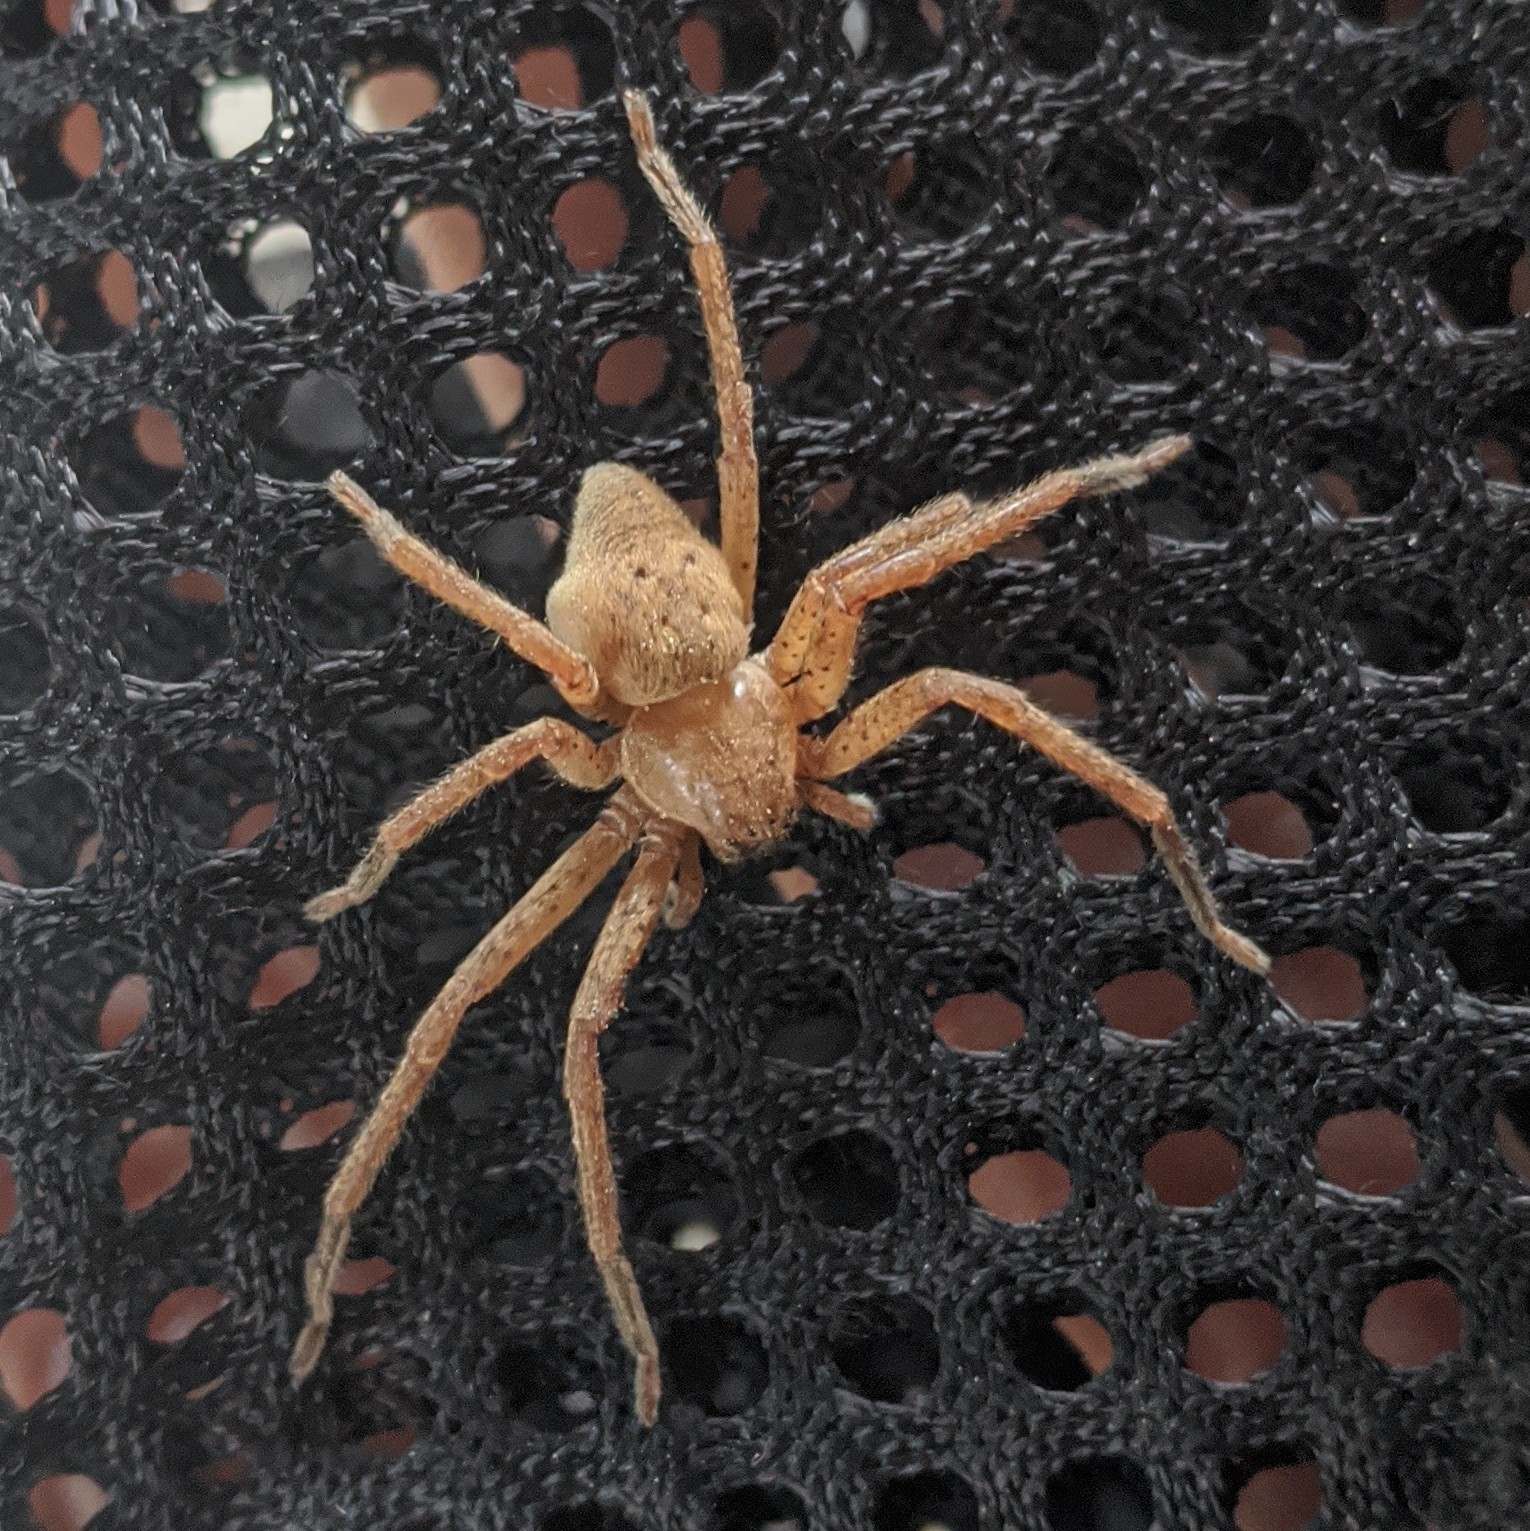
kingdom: Animalia
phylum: Arthropoda
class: Arachnida
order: Araneae
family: Sparassidae
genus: Olios
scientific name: Olios argelasius
